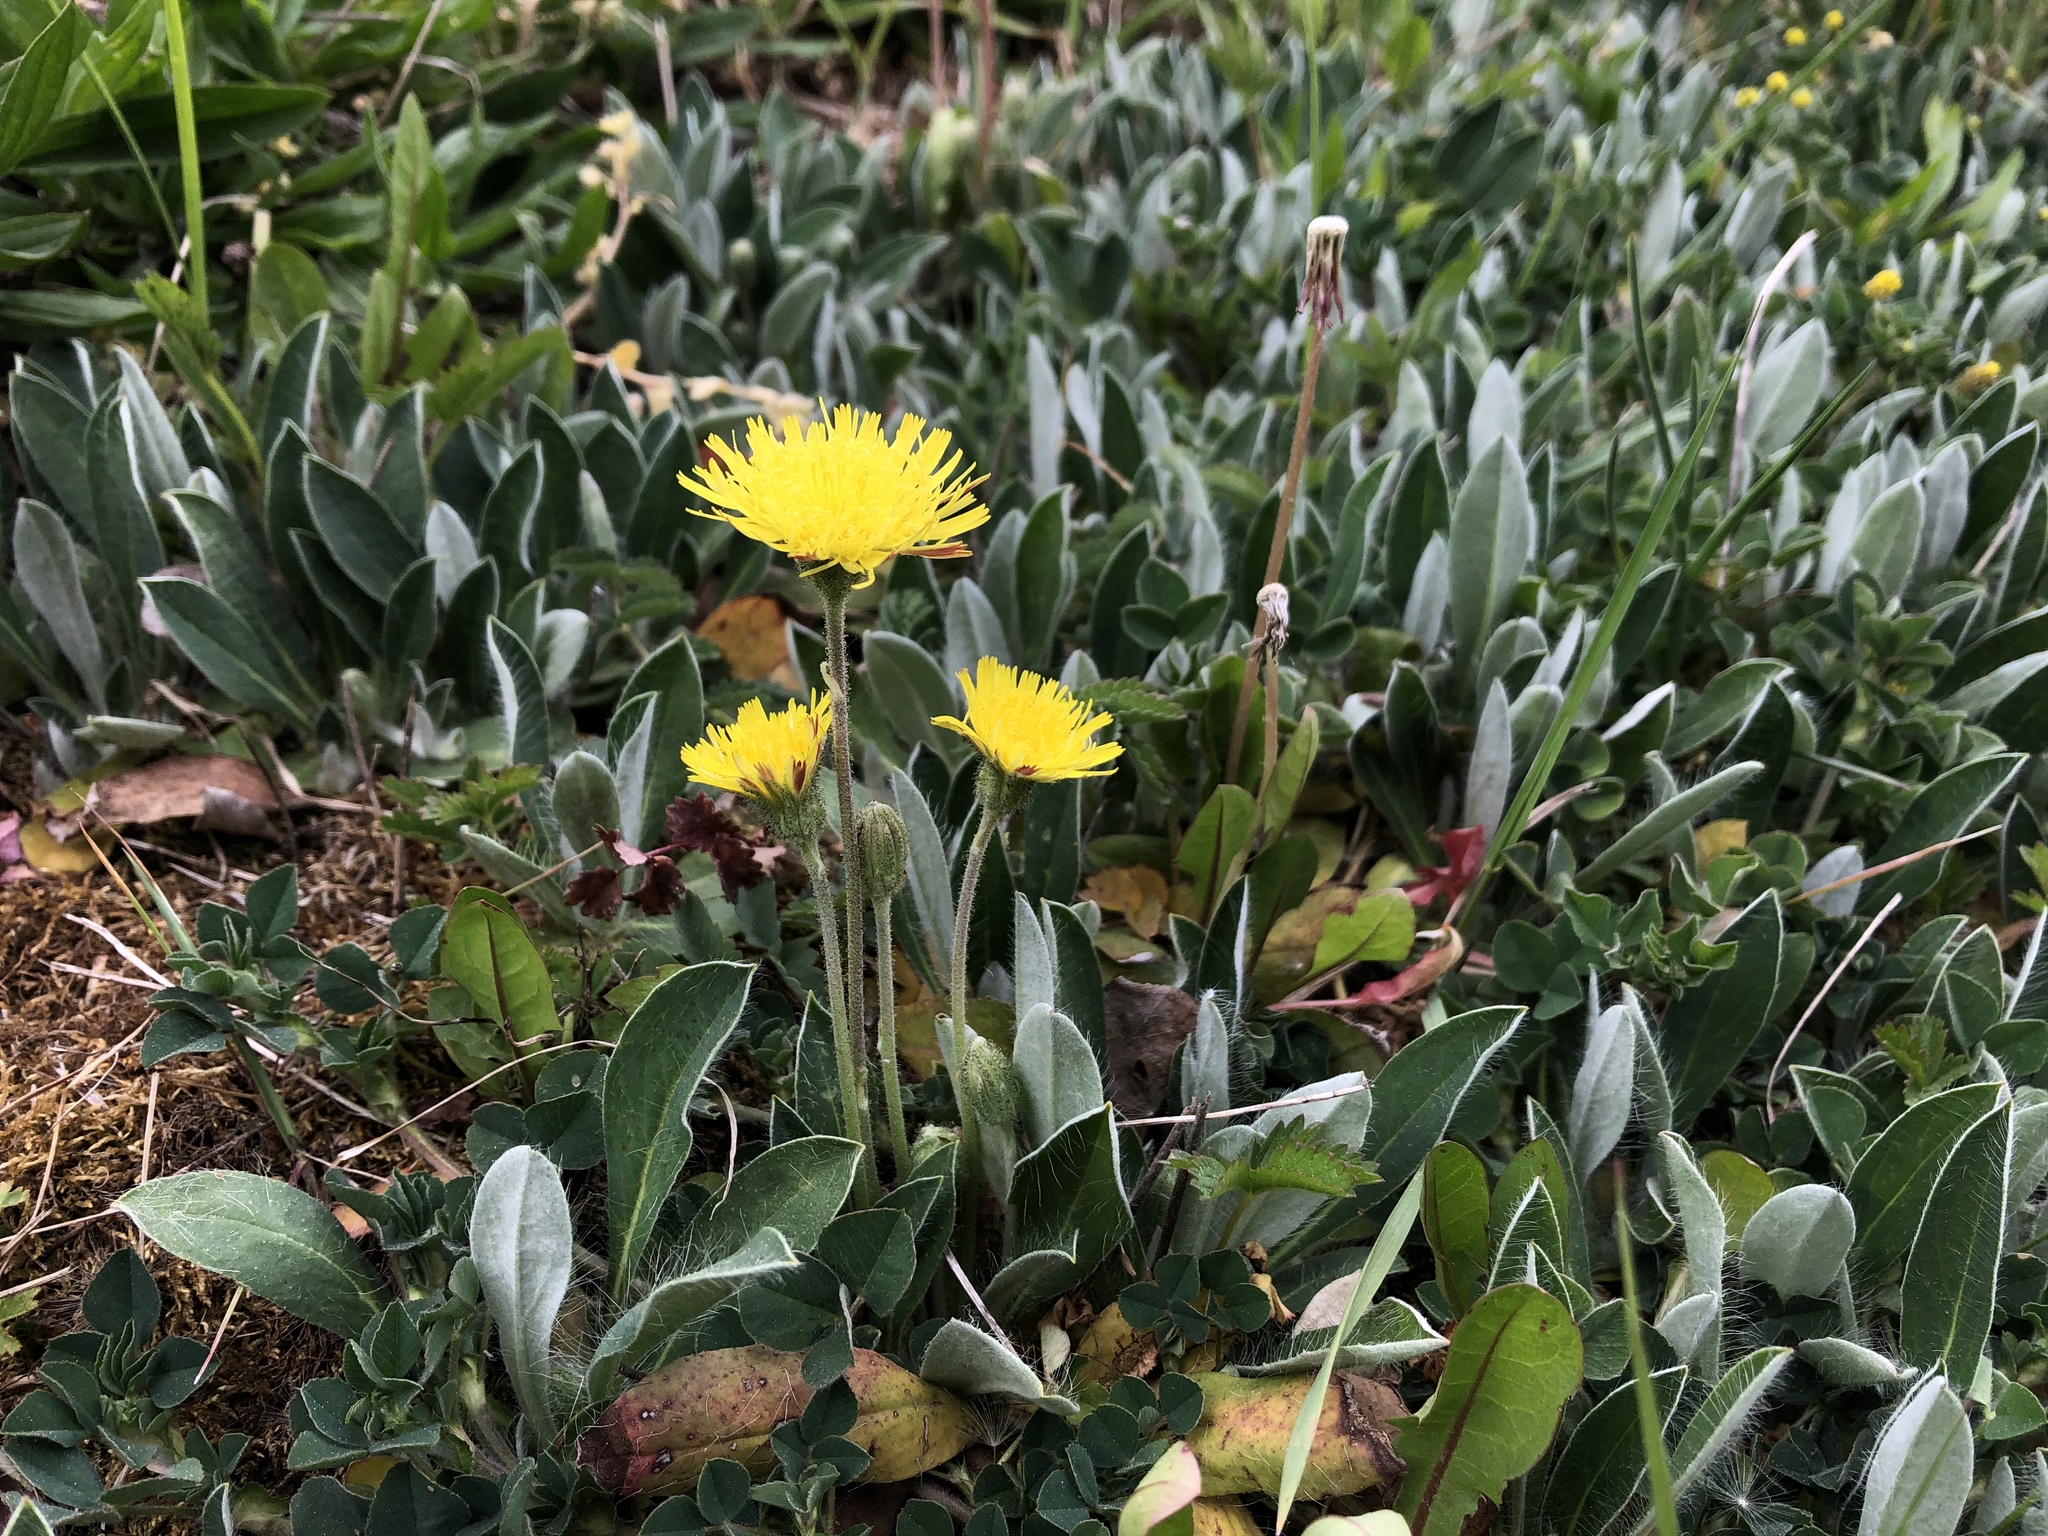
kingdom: Plantae
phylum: Tracheophyta
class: Magnoliopsida
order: Asterales
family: Asteraceae
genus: Pilosella
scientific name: Pilosella officinarum
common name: Mouse-ear hawkweed
